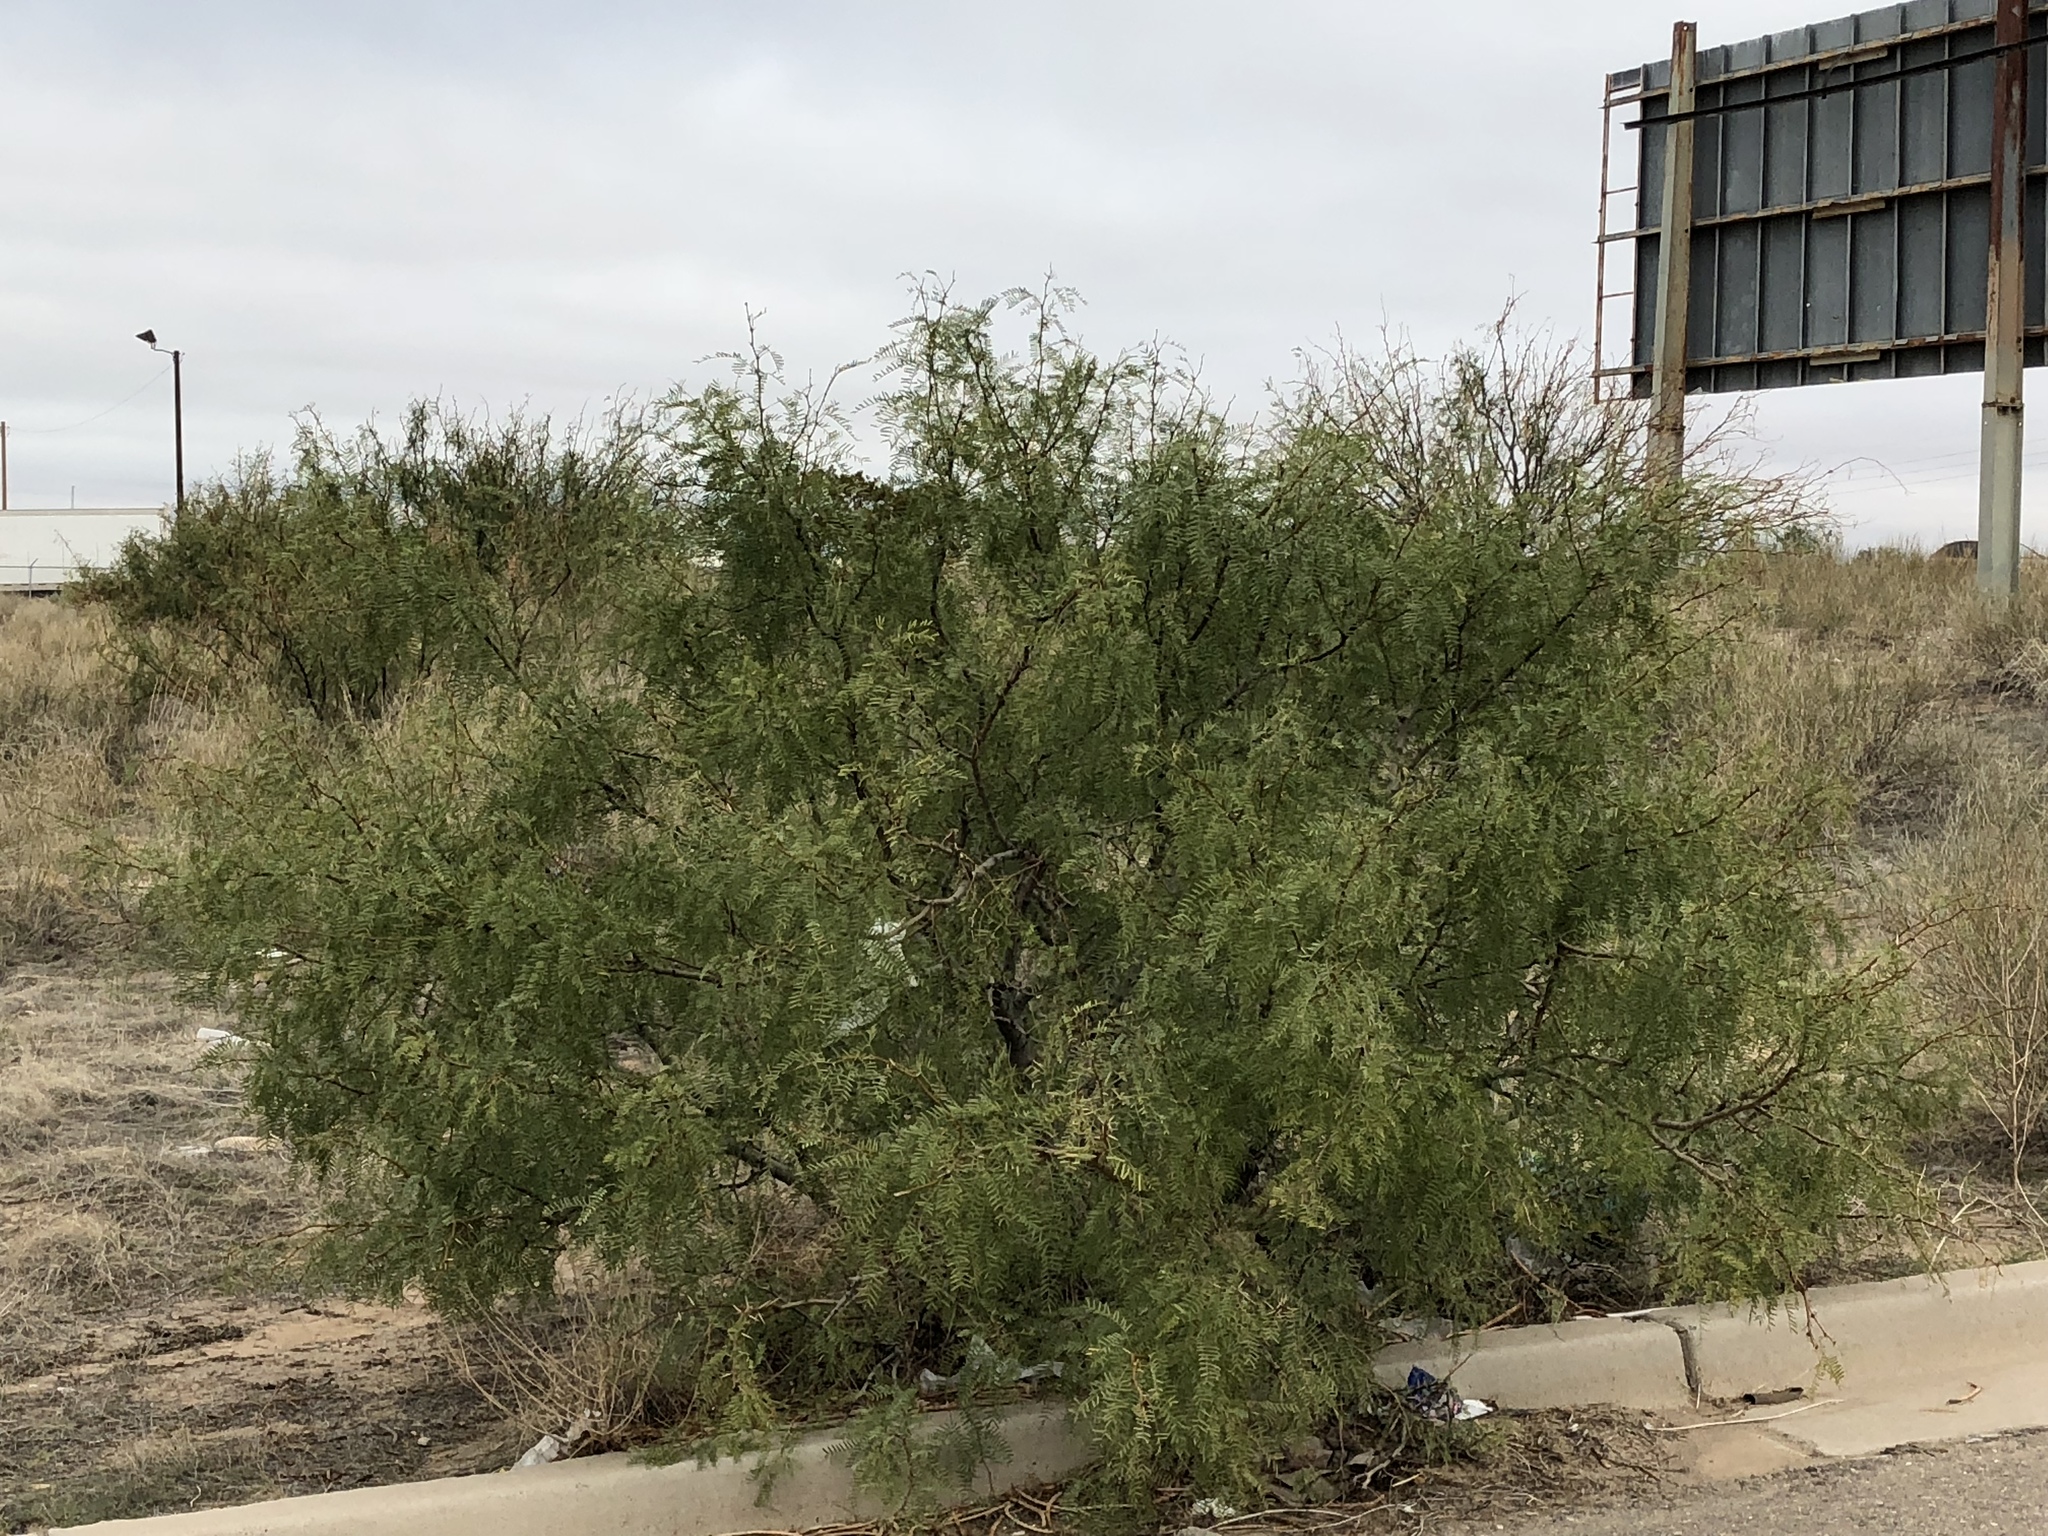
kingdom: Plantae
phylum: Tracheophyta
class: Magnoliopsida
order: Fabales
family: Fabaceae
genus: Prosopis
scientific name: Prosopis glandulosa
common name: Honey mesquite
